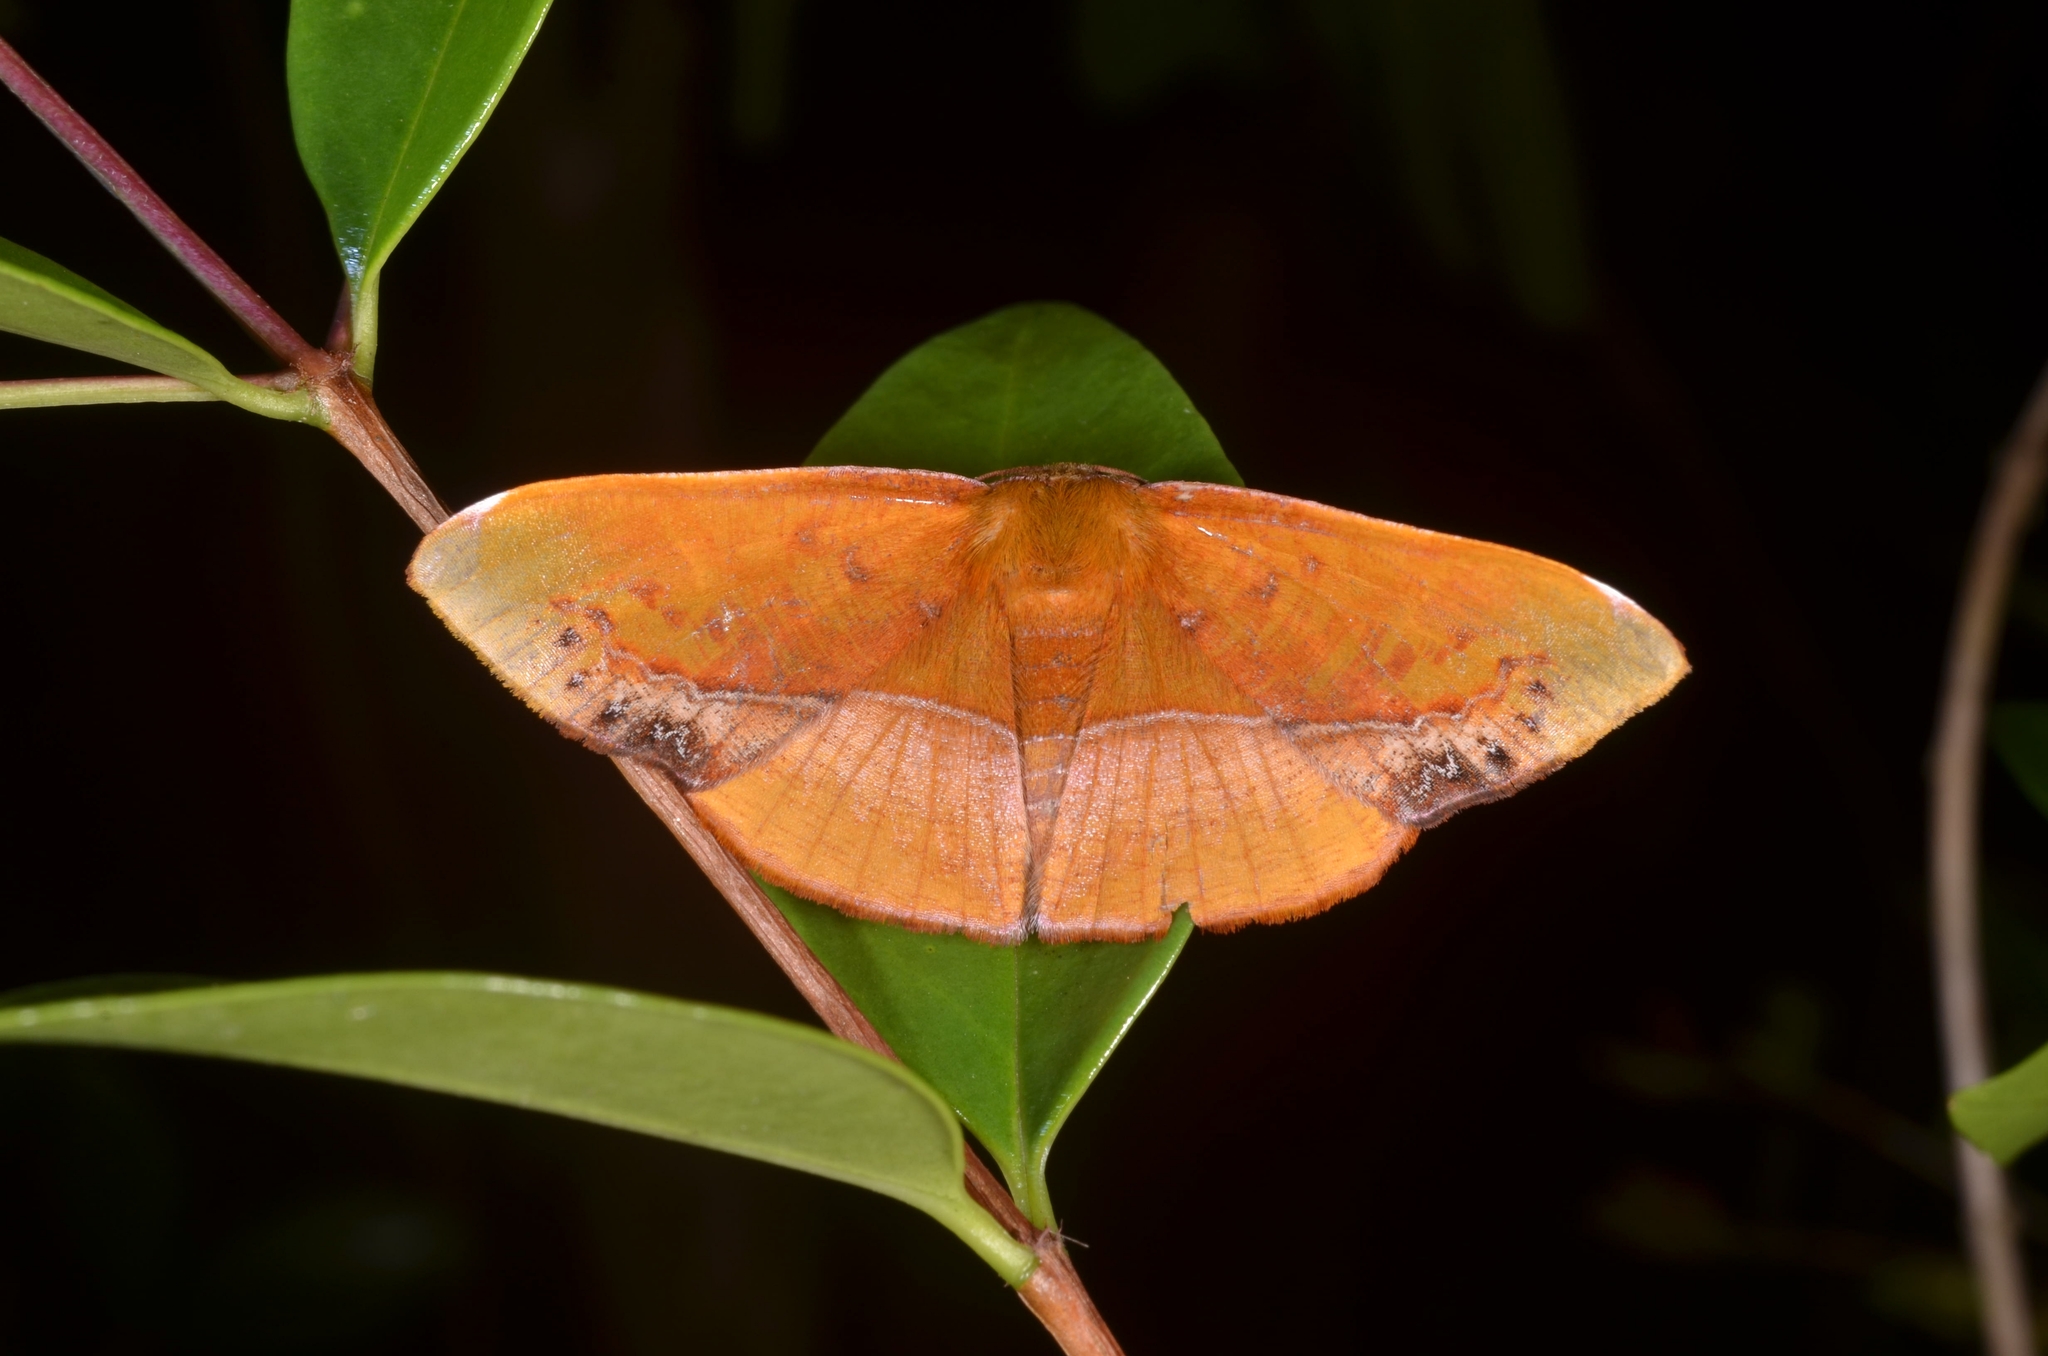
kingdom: Animalia
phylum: Arthropoda
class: Insecta
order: Lepidoptera
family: Geometridae
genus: Fascellina
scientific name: Fascellina clausaria
